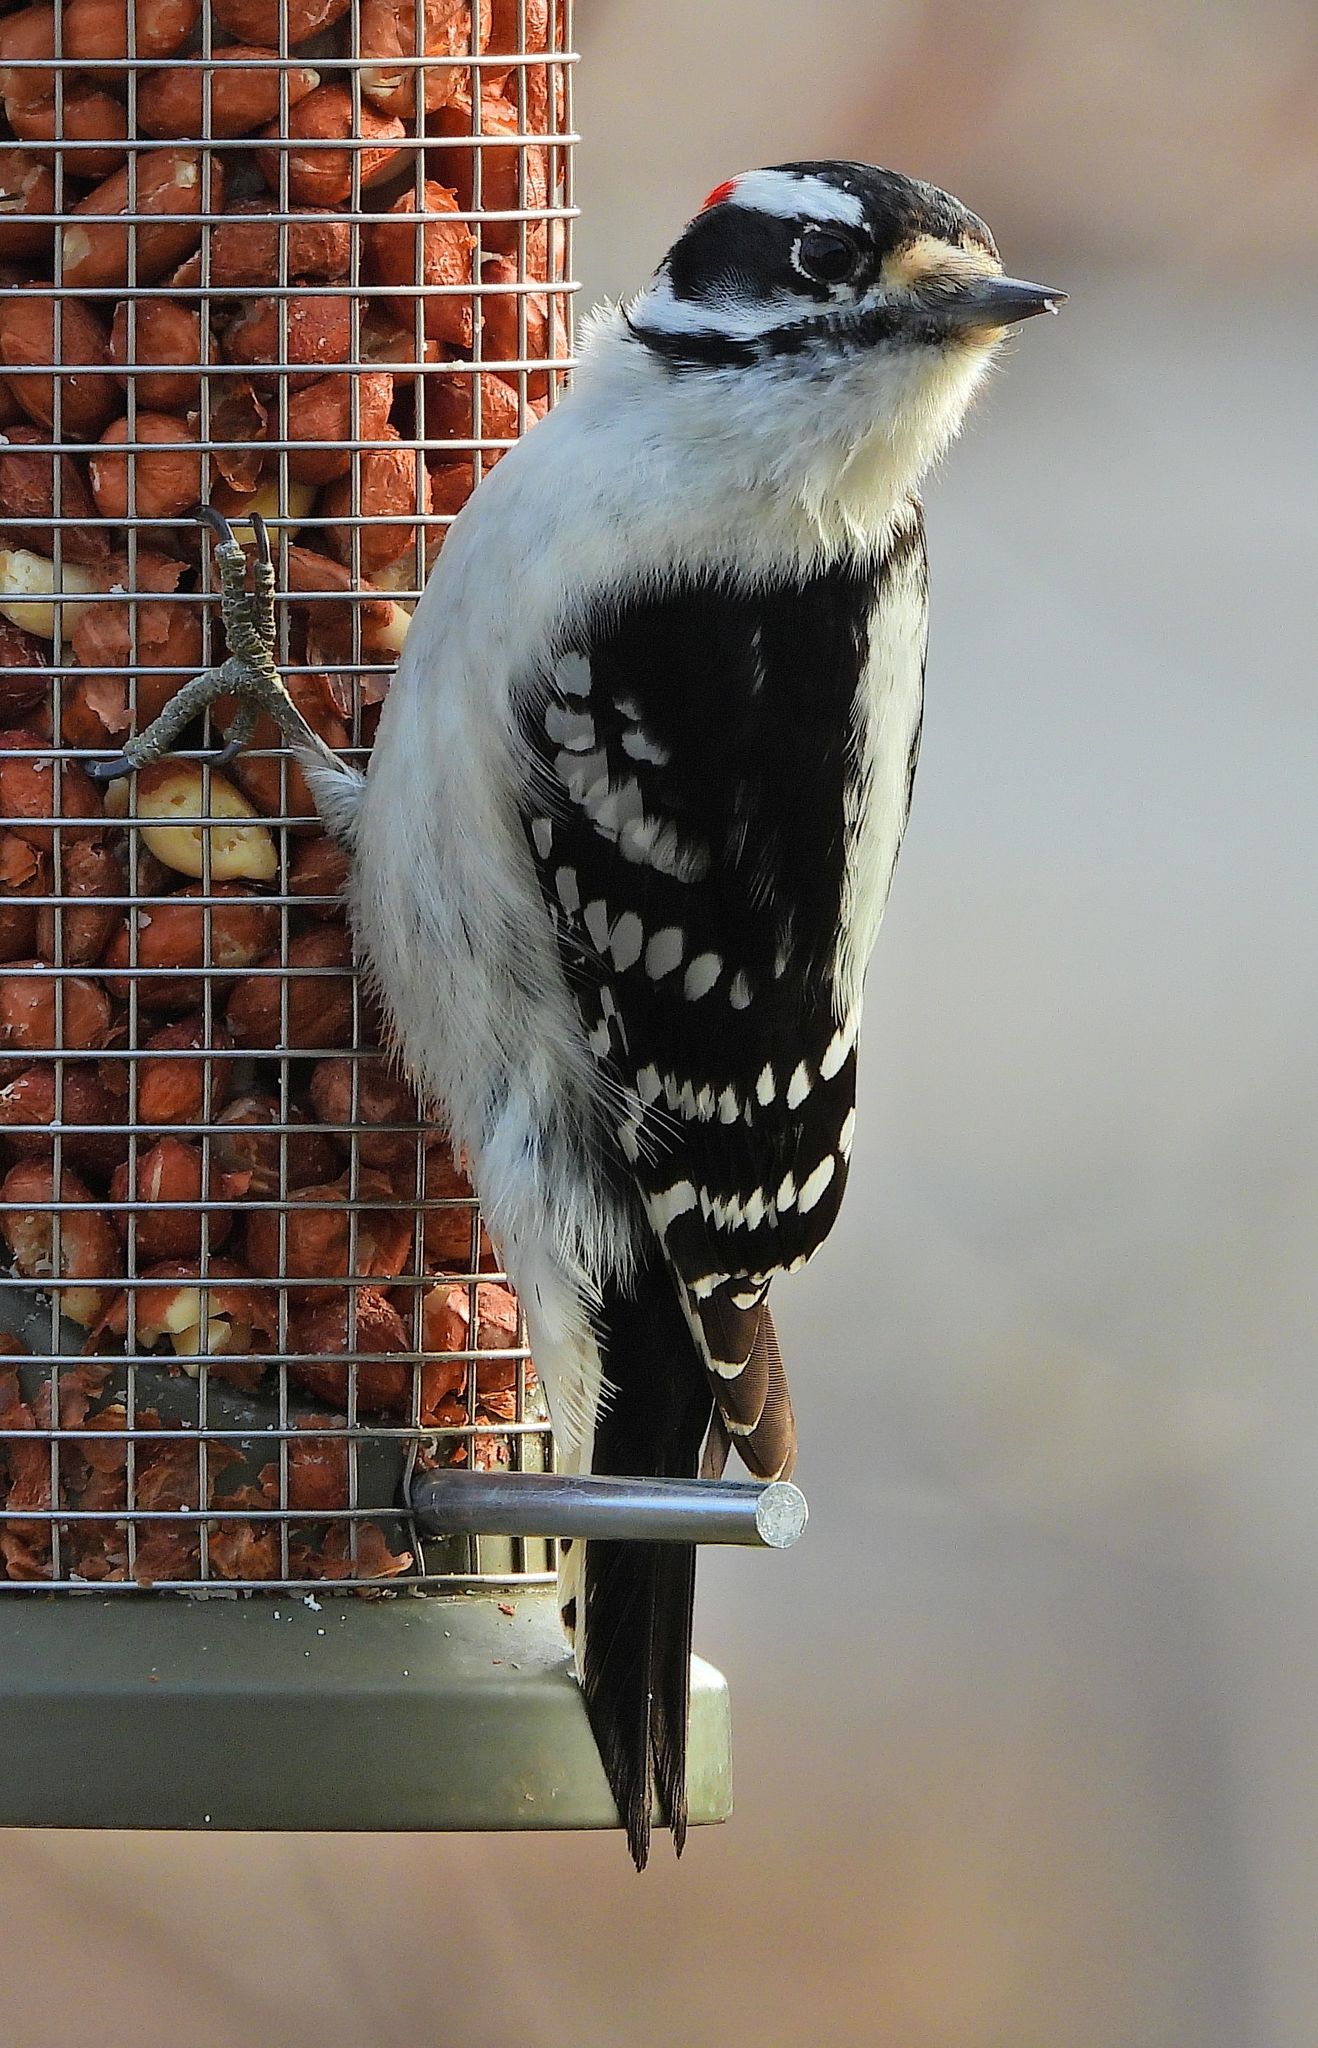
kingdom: Animalia
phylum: Chordata
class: Aves
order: Piciformes
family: Picidae
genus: Dryobates
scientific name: Dryobates pubescens
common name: Downy woodpecker
